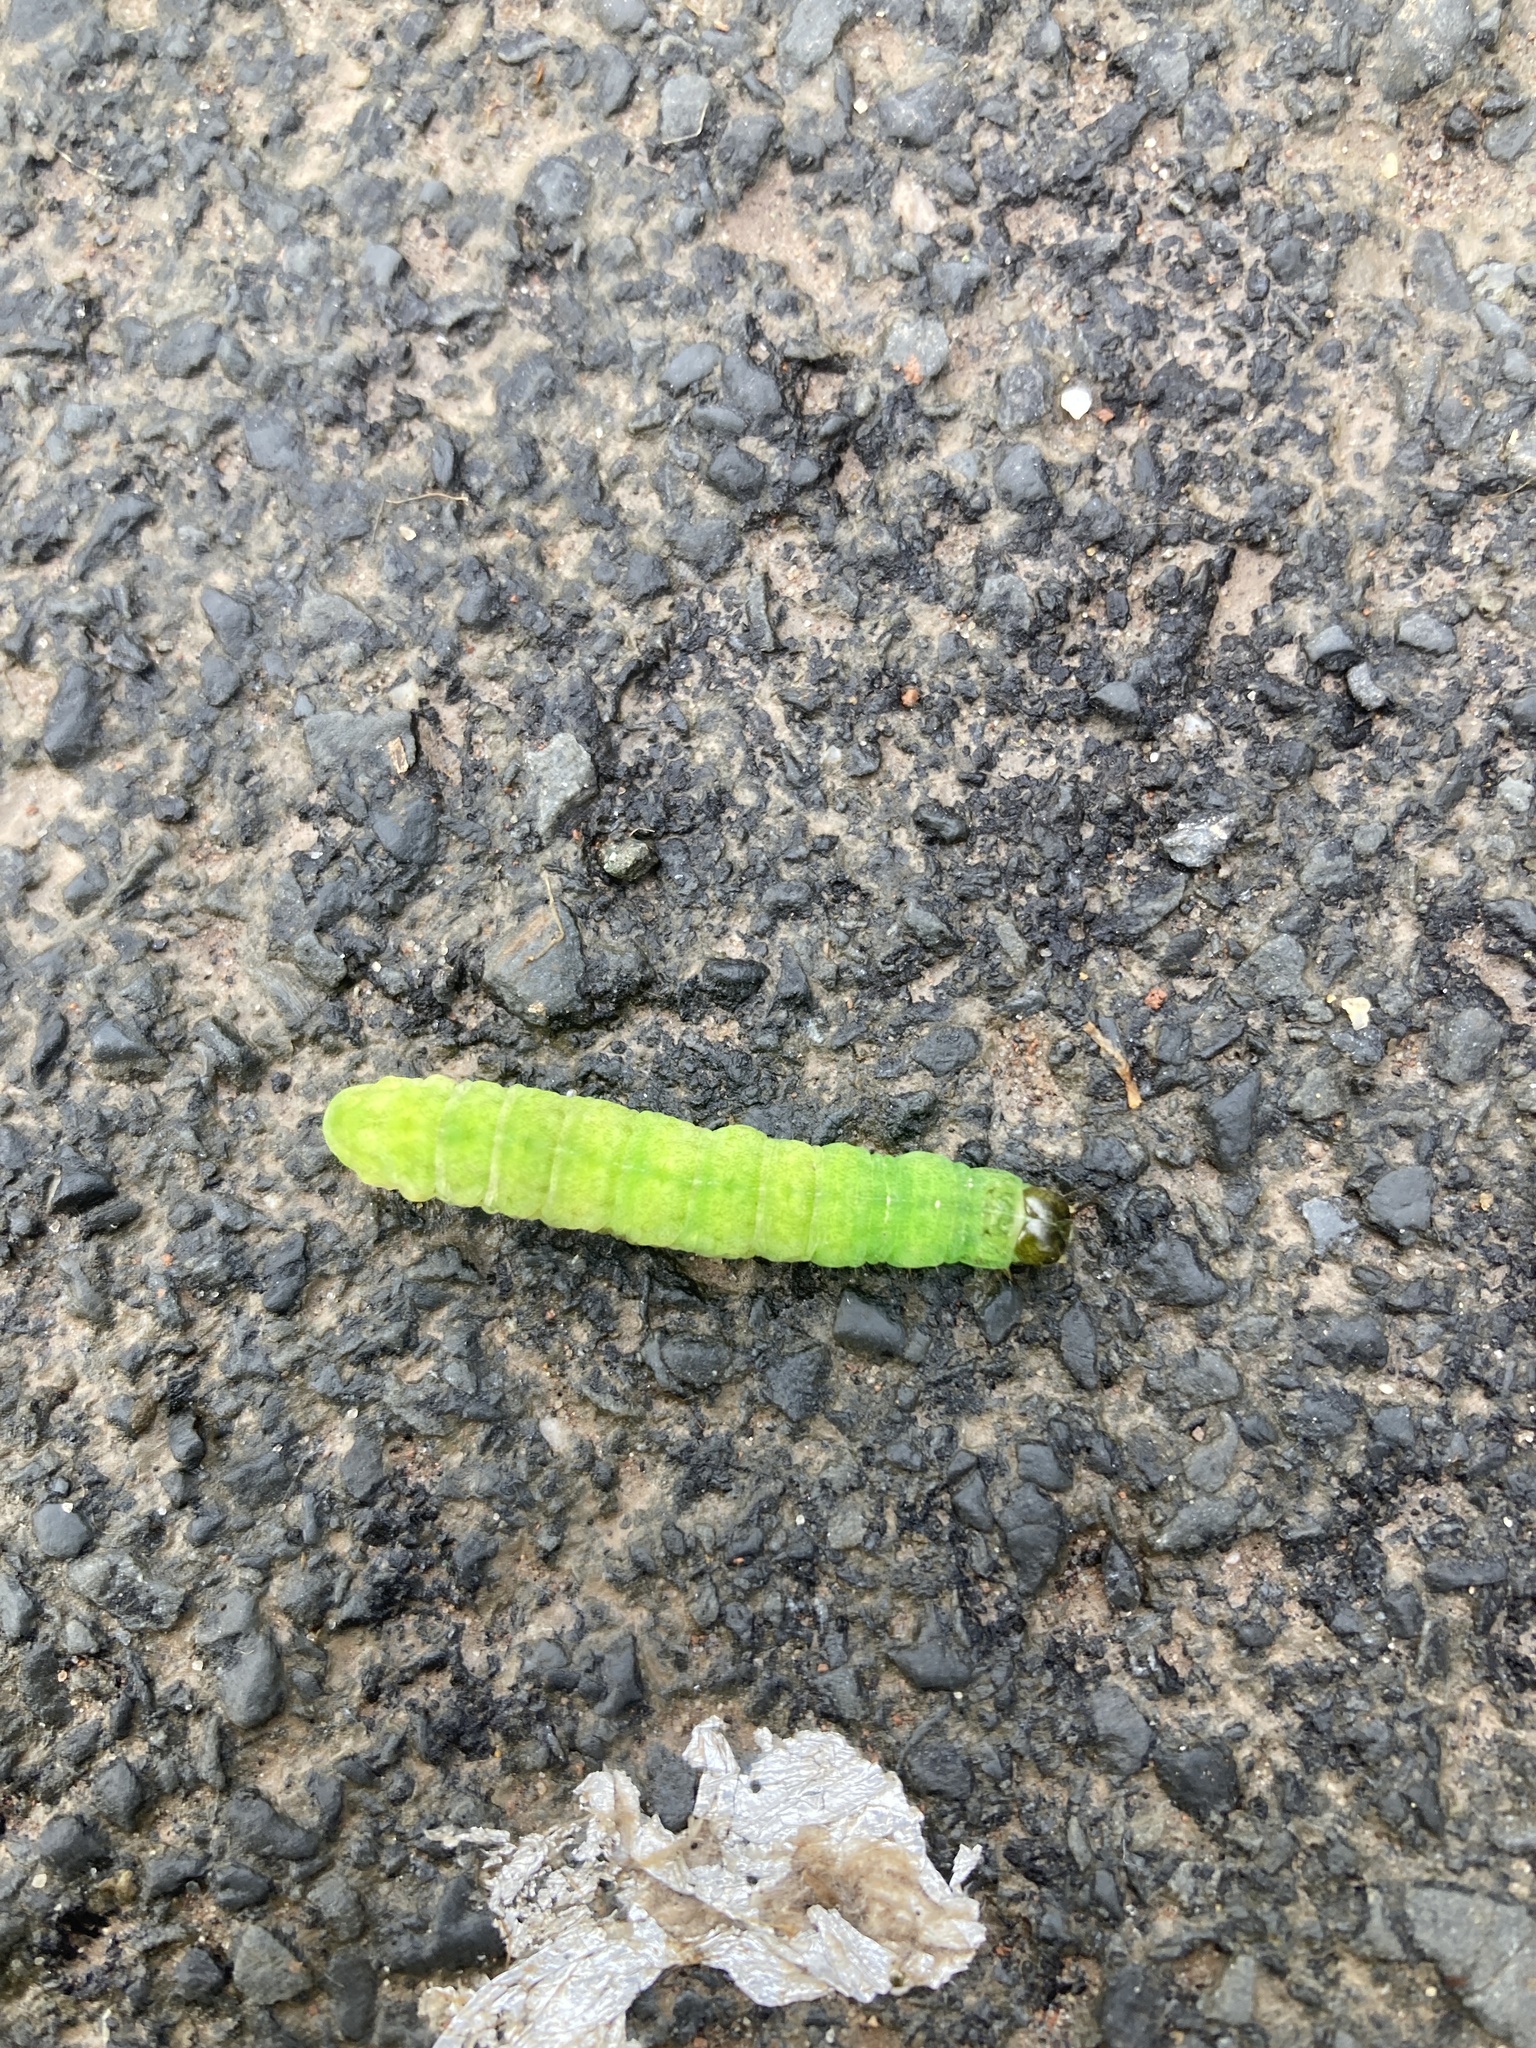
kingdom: Animalia
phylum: Arthropoda
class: Insecta
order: Lepidoptera
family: Noctuidae
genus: Phlogophora
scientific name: Phlogophora meticulosa
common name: Angle shades
